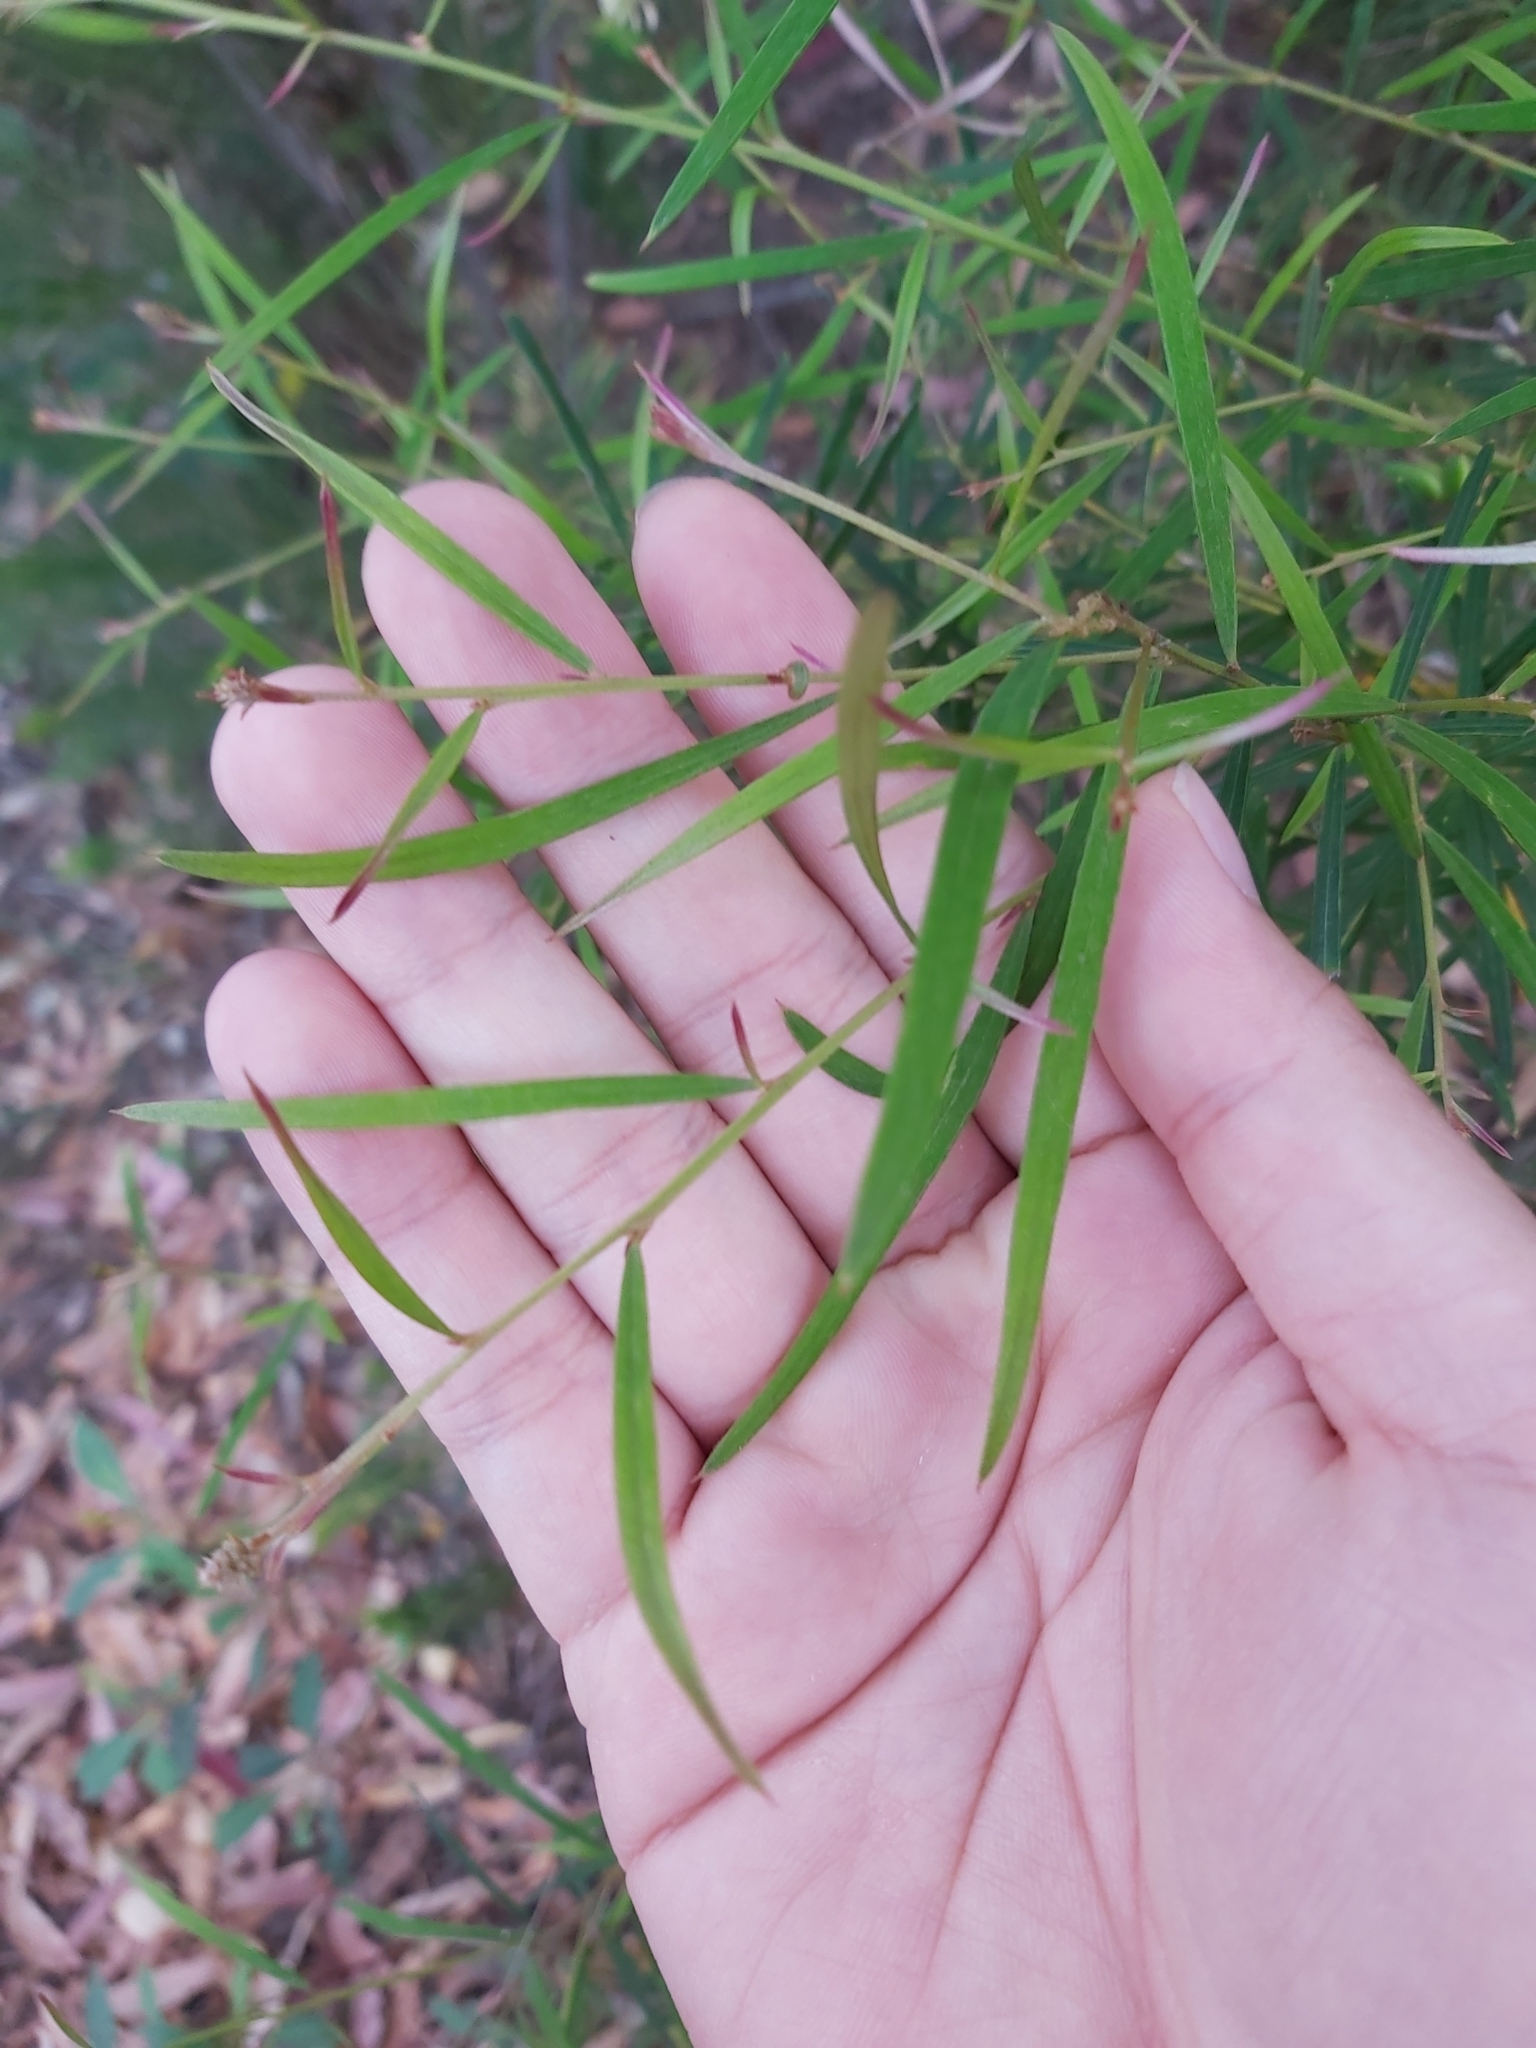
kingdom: Plantae
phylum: Tracheophyta
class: Magnoliopsida
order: Proteales
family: Proteaceae
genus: Grevillea
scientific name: Grevillea linearifolia
